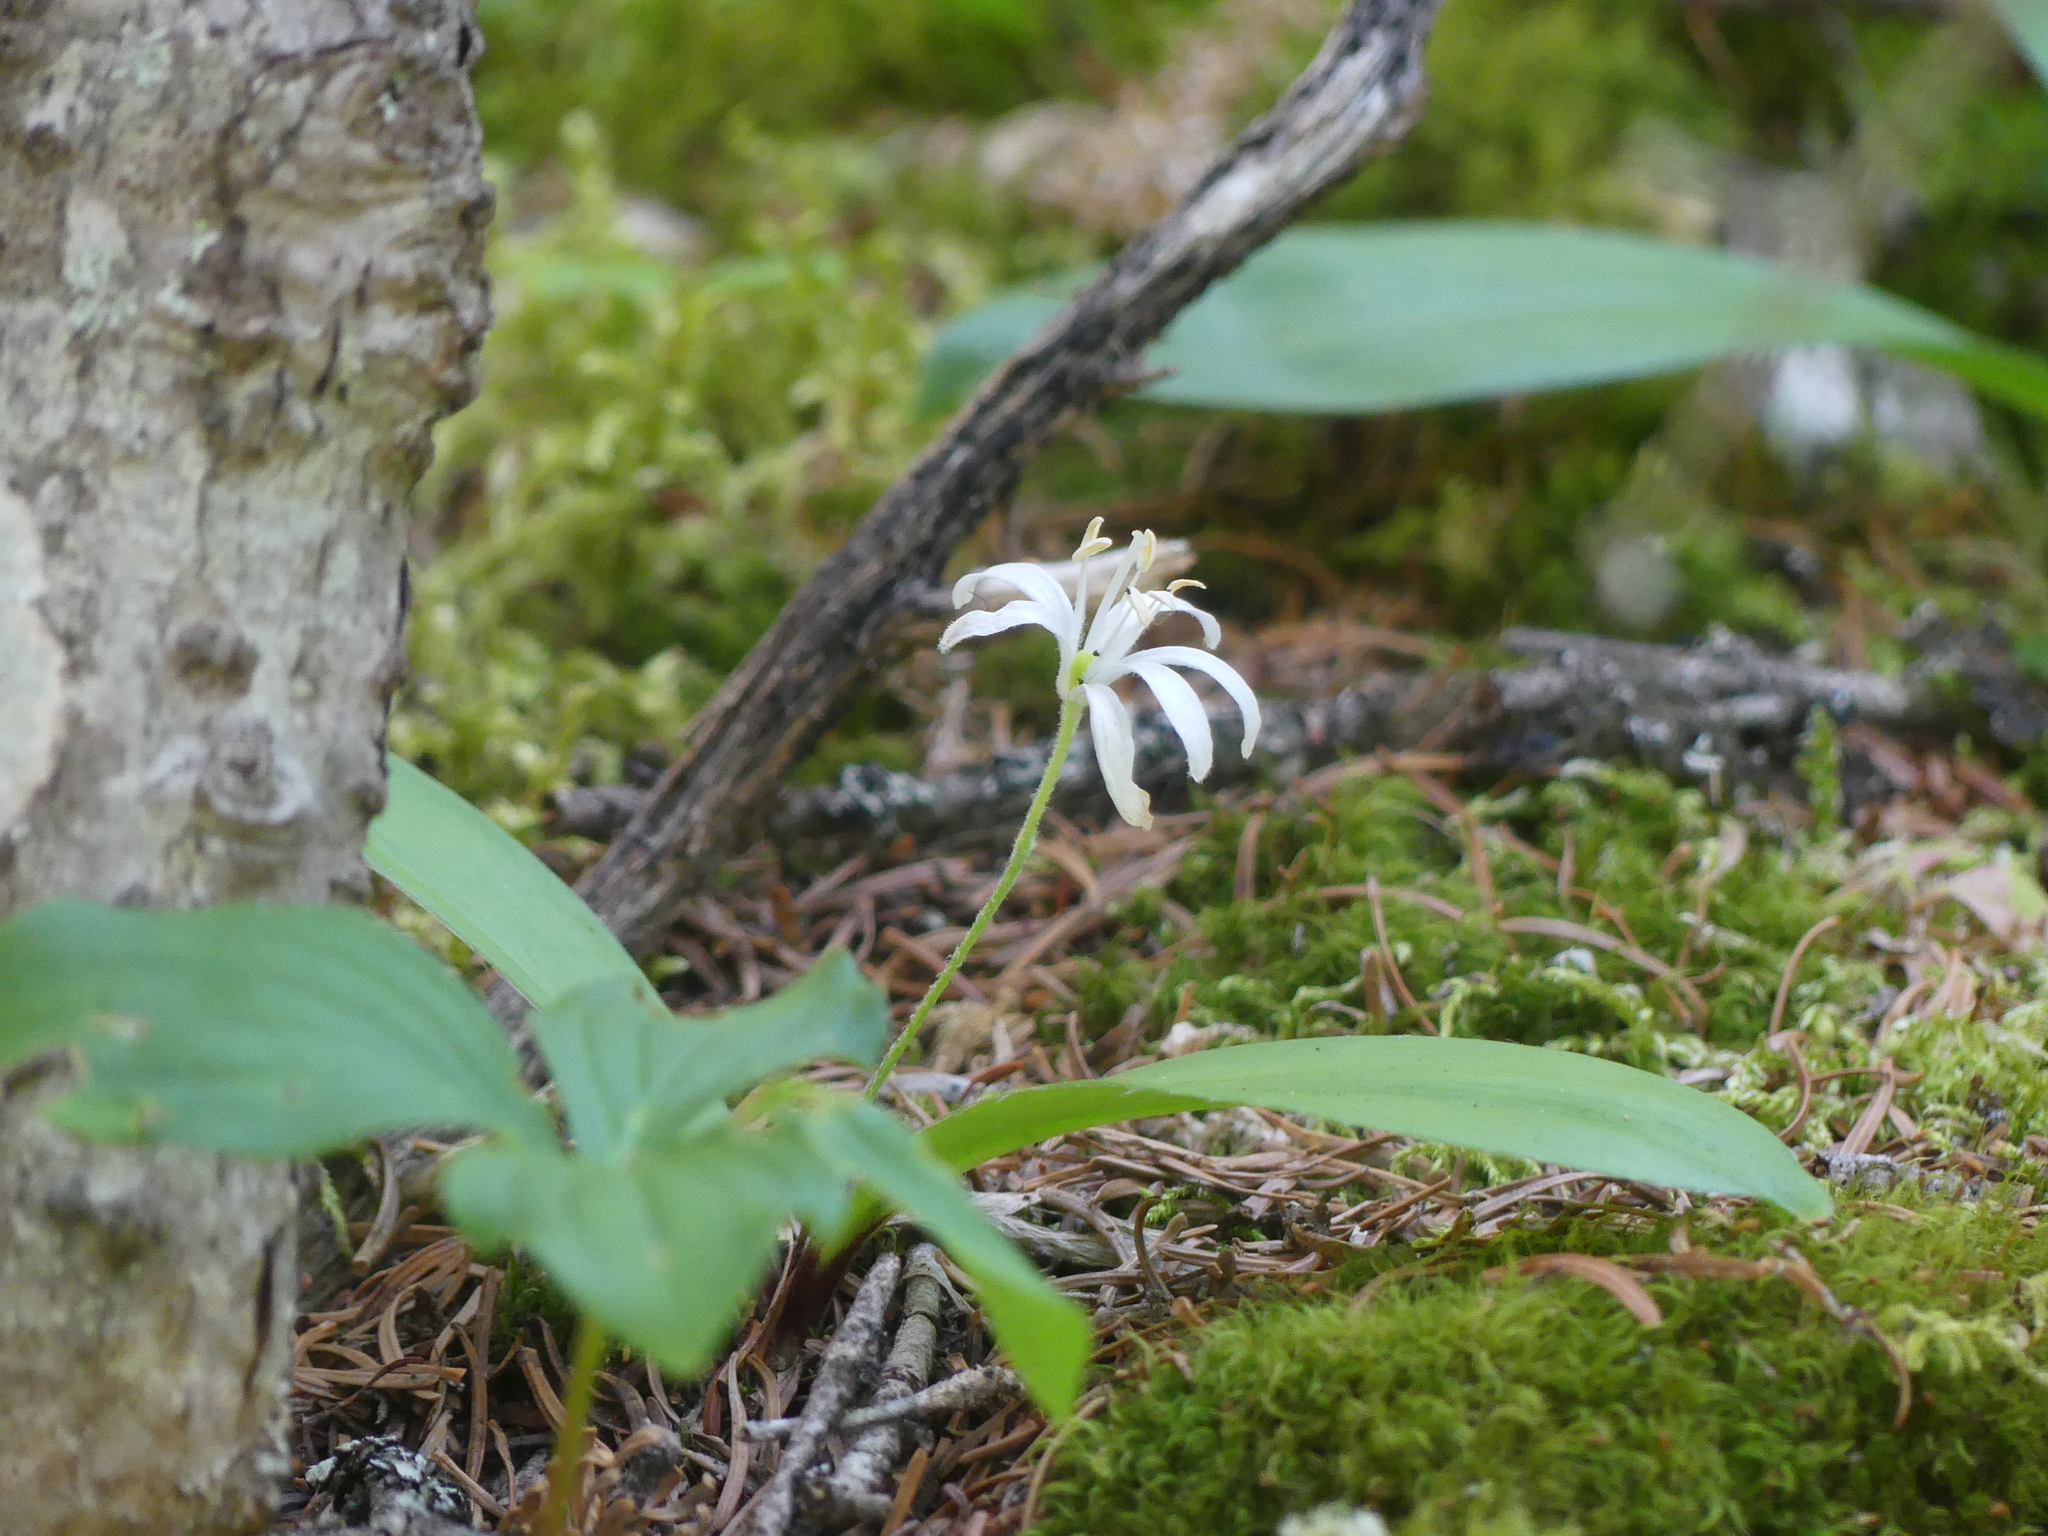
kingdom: Plantae
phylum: Tracheophyta
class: Liliopsida
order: Liliales
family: Liliaceae
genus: Clintonia
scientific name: Clintonia uniflora
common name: Queen's cup
